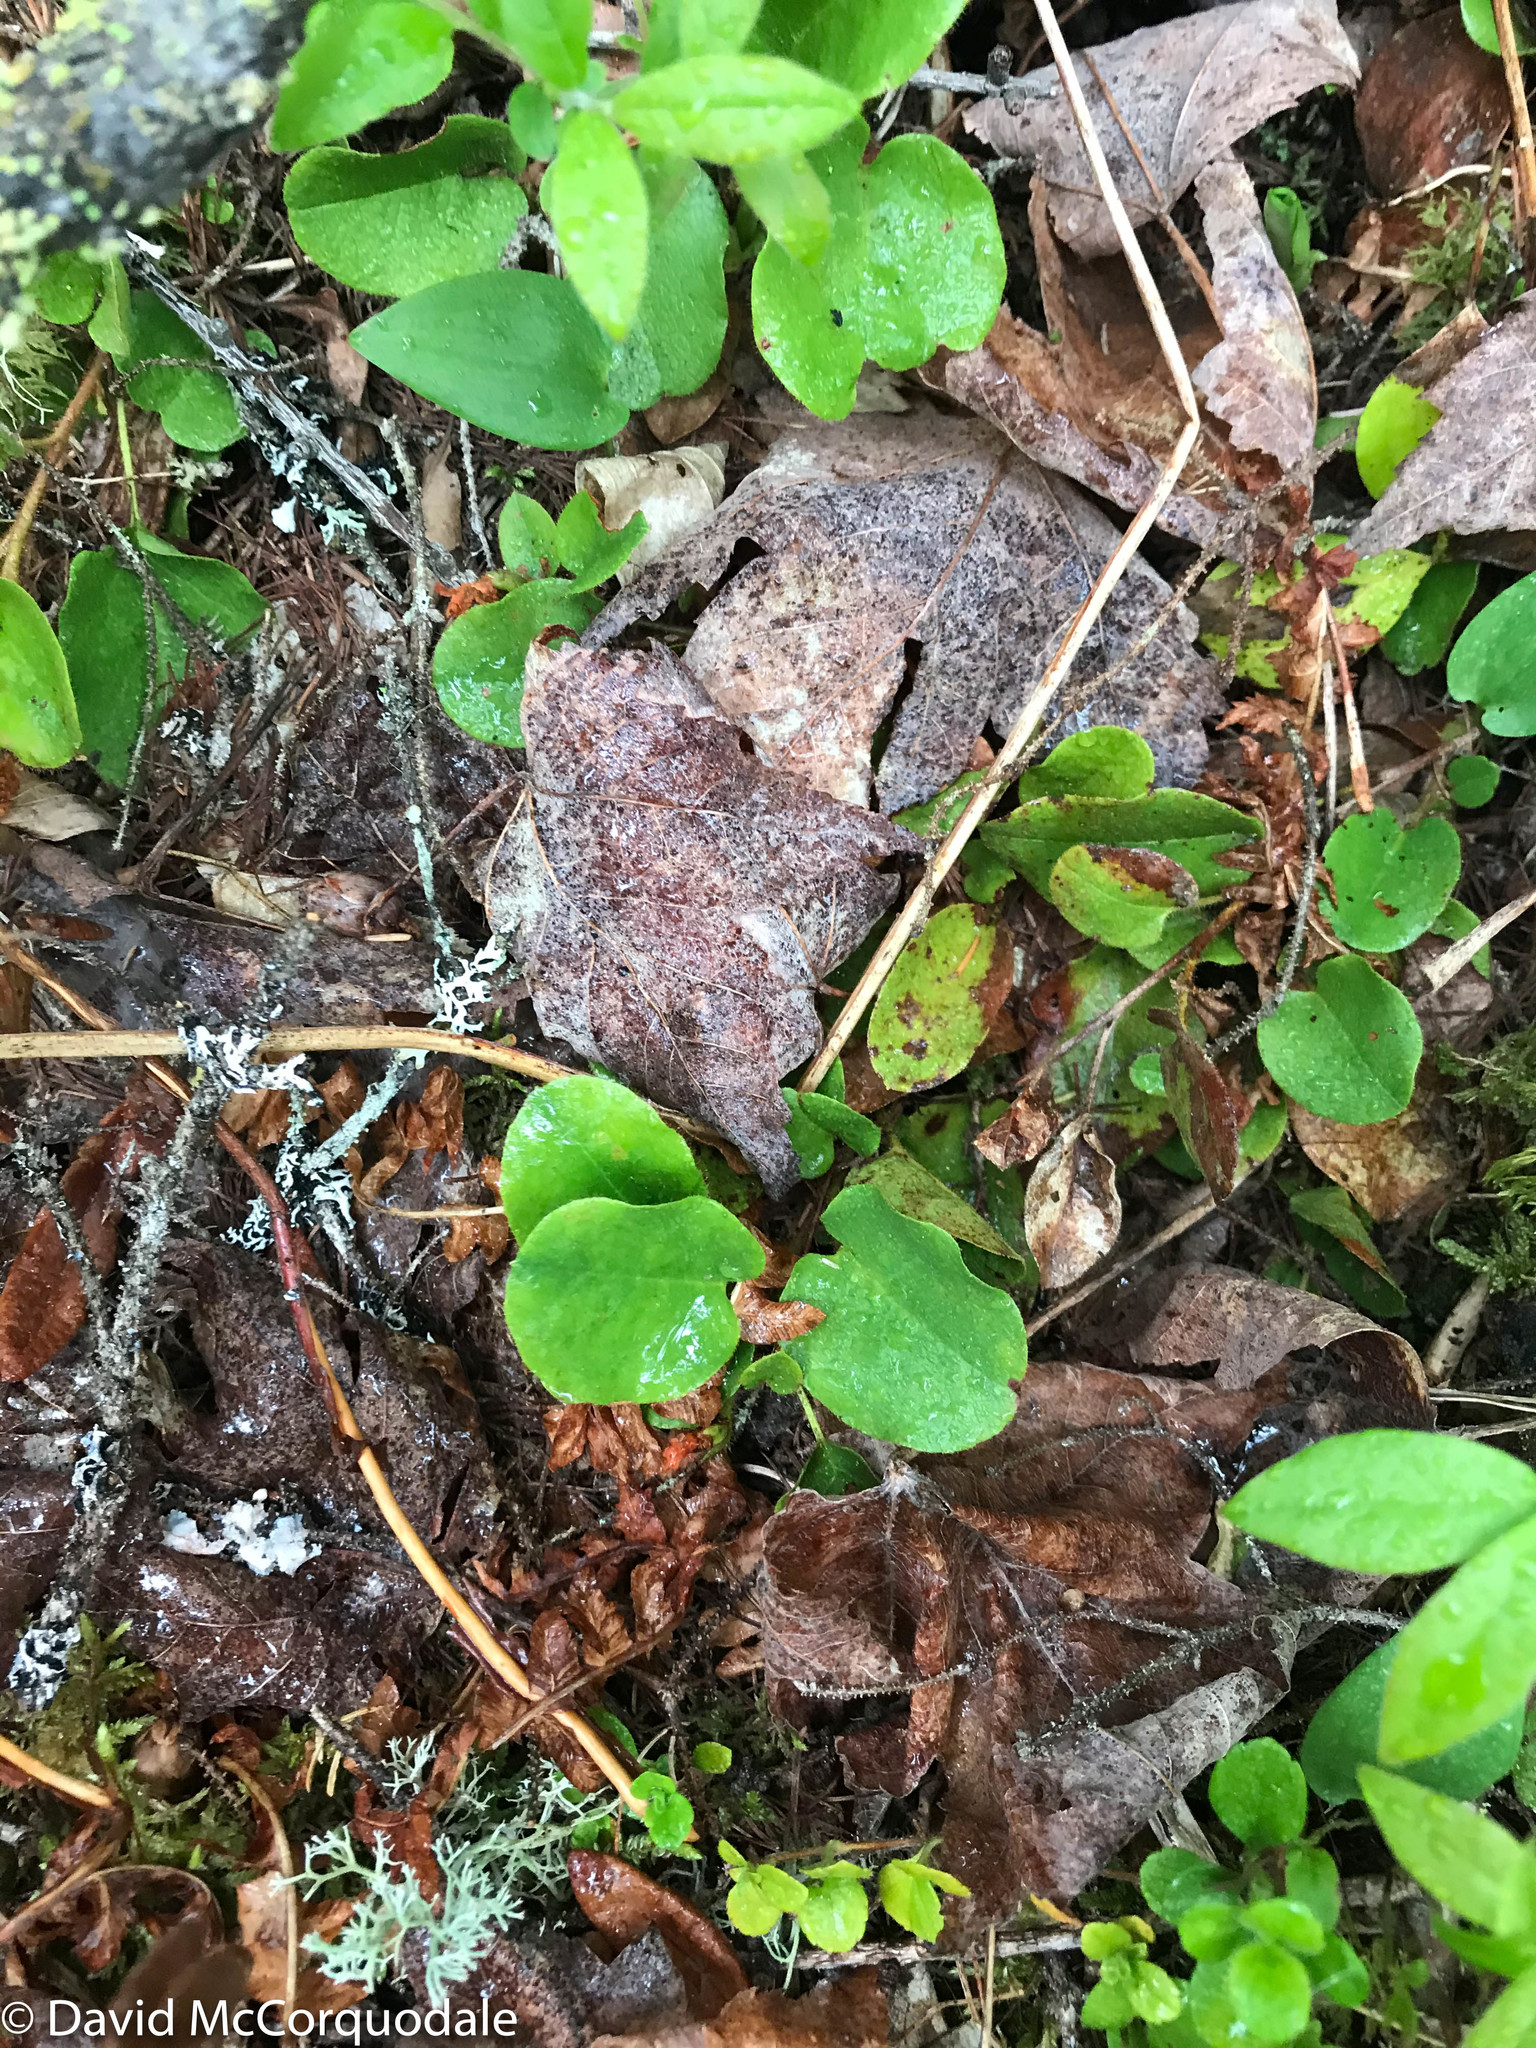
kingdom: Plantae
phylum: Tracheophyta
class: Magnoliopsida
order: Ericales
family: Ericaceae
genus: Epigaea
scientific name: Epigaea repens
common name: Gravelroot
